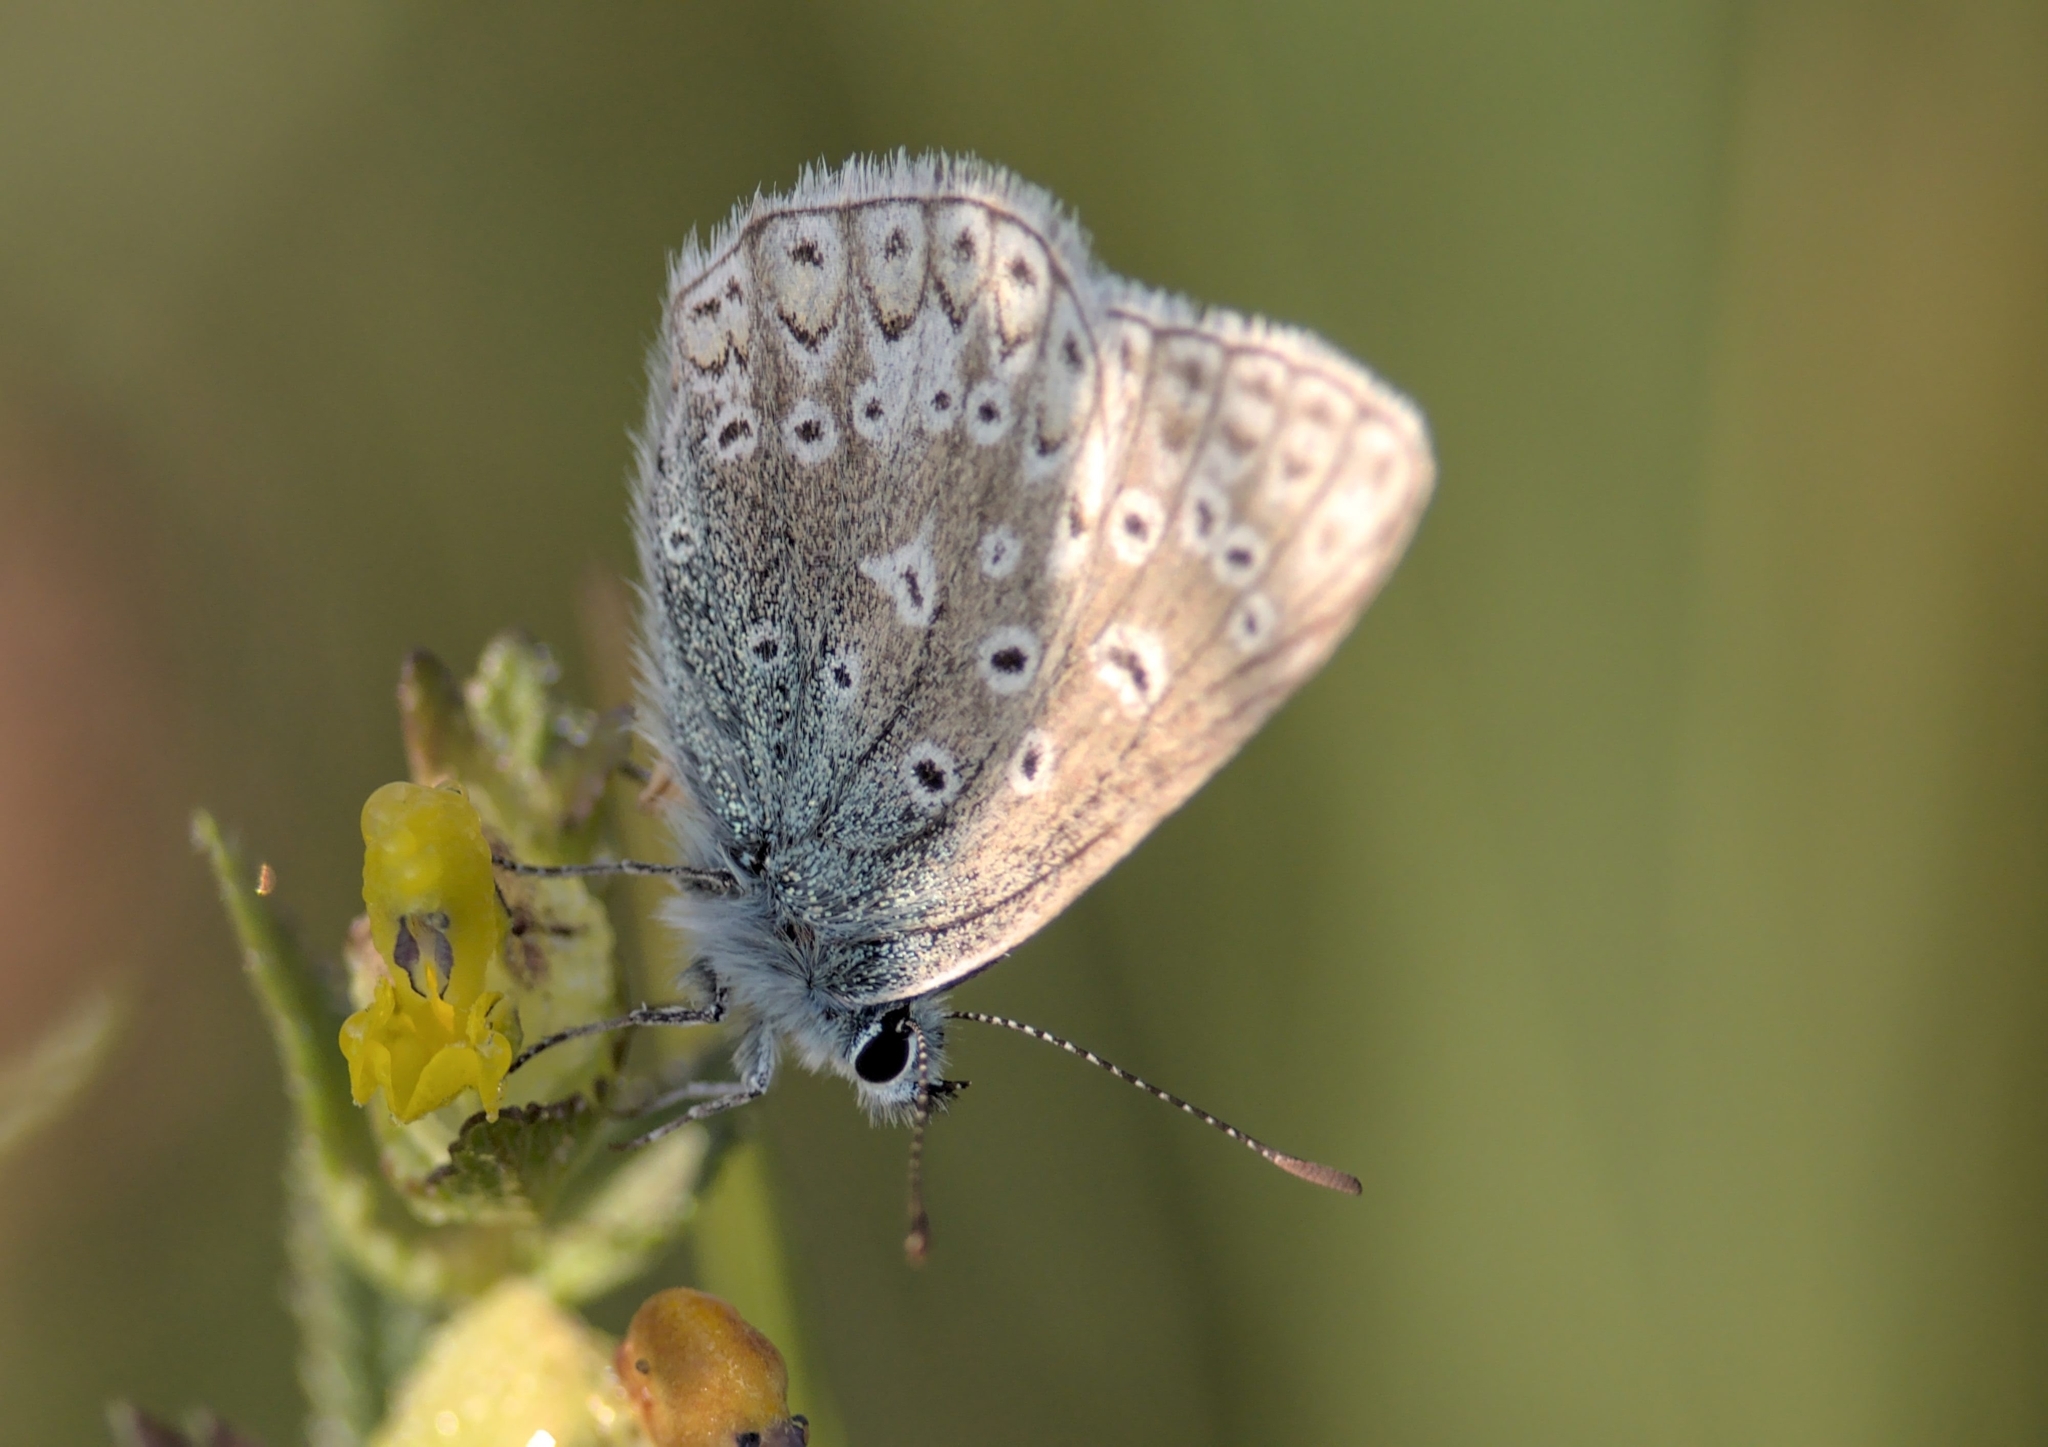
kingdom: Animalia
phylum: Arthropoda
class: Insecta
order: Lepidoptera
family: Lycaenidae
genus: Polyommatus
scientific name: Polyommatus icarus
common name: Common blue
